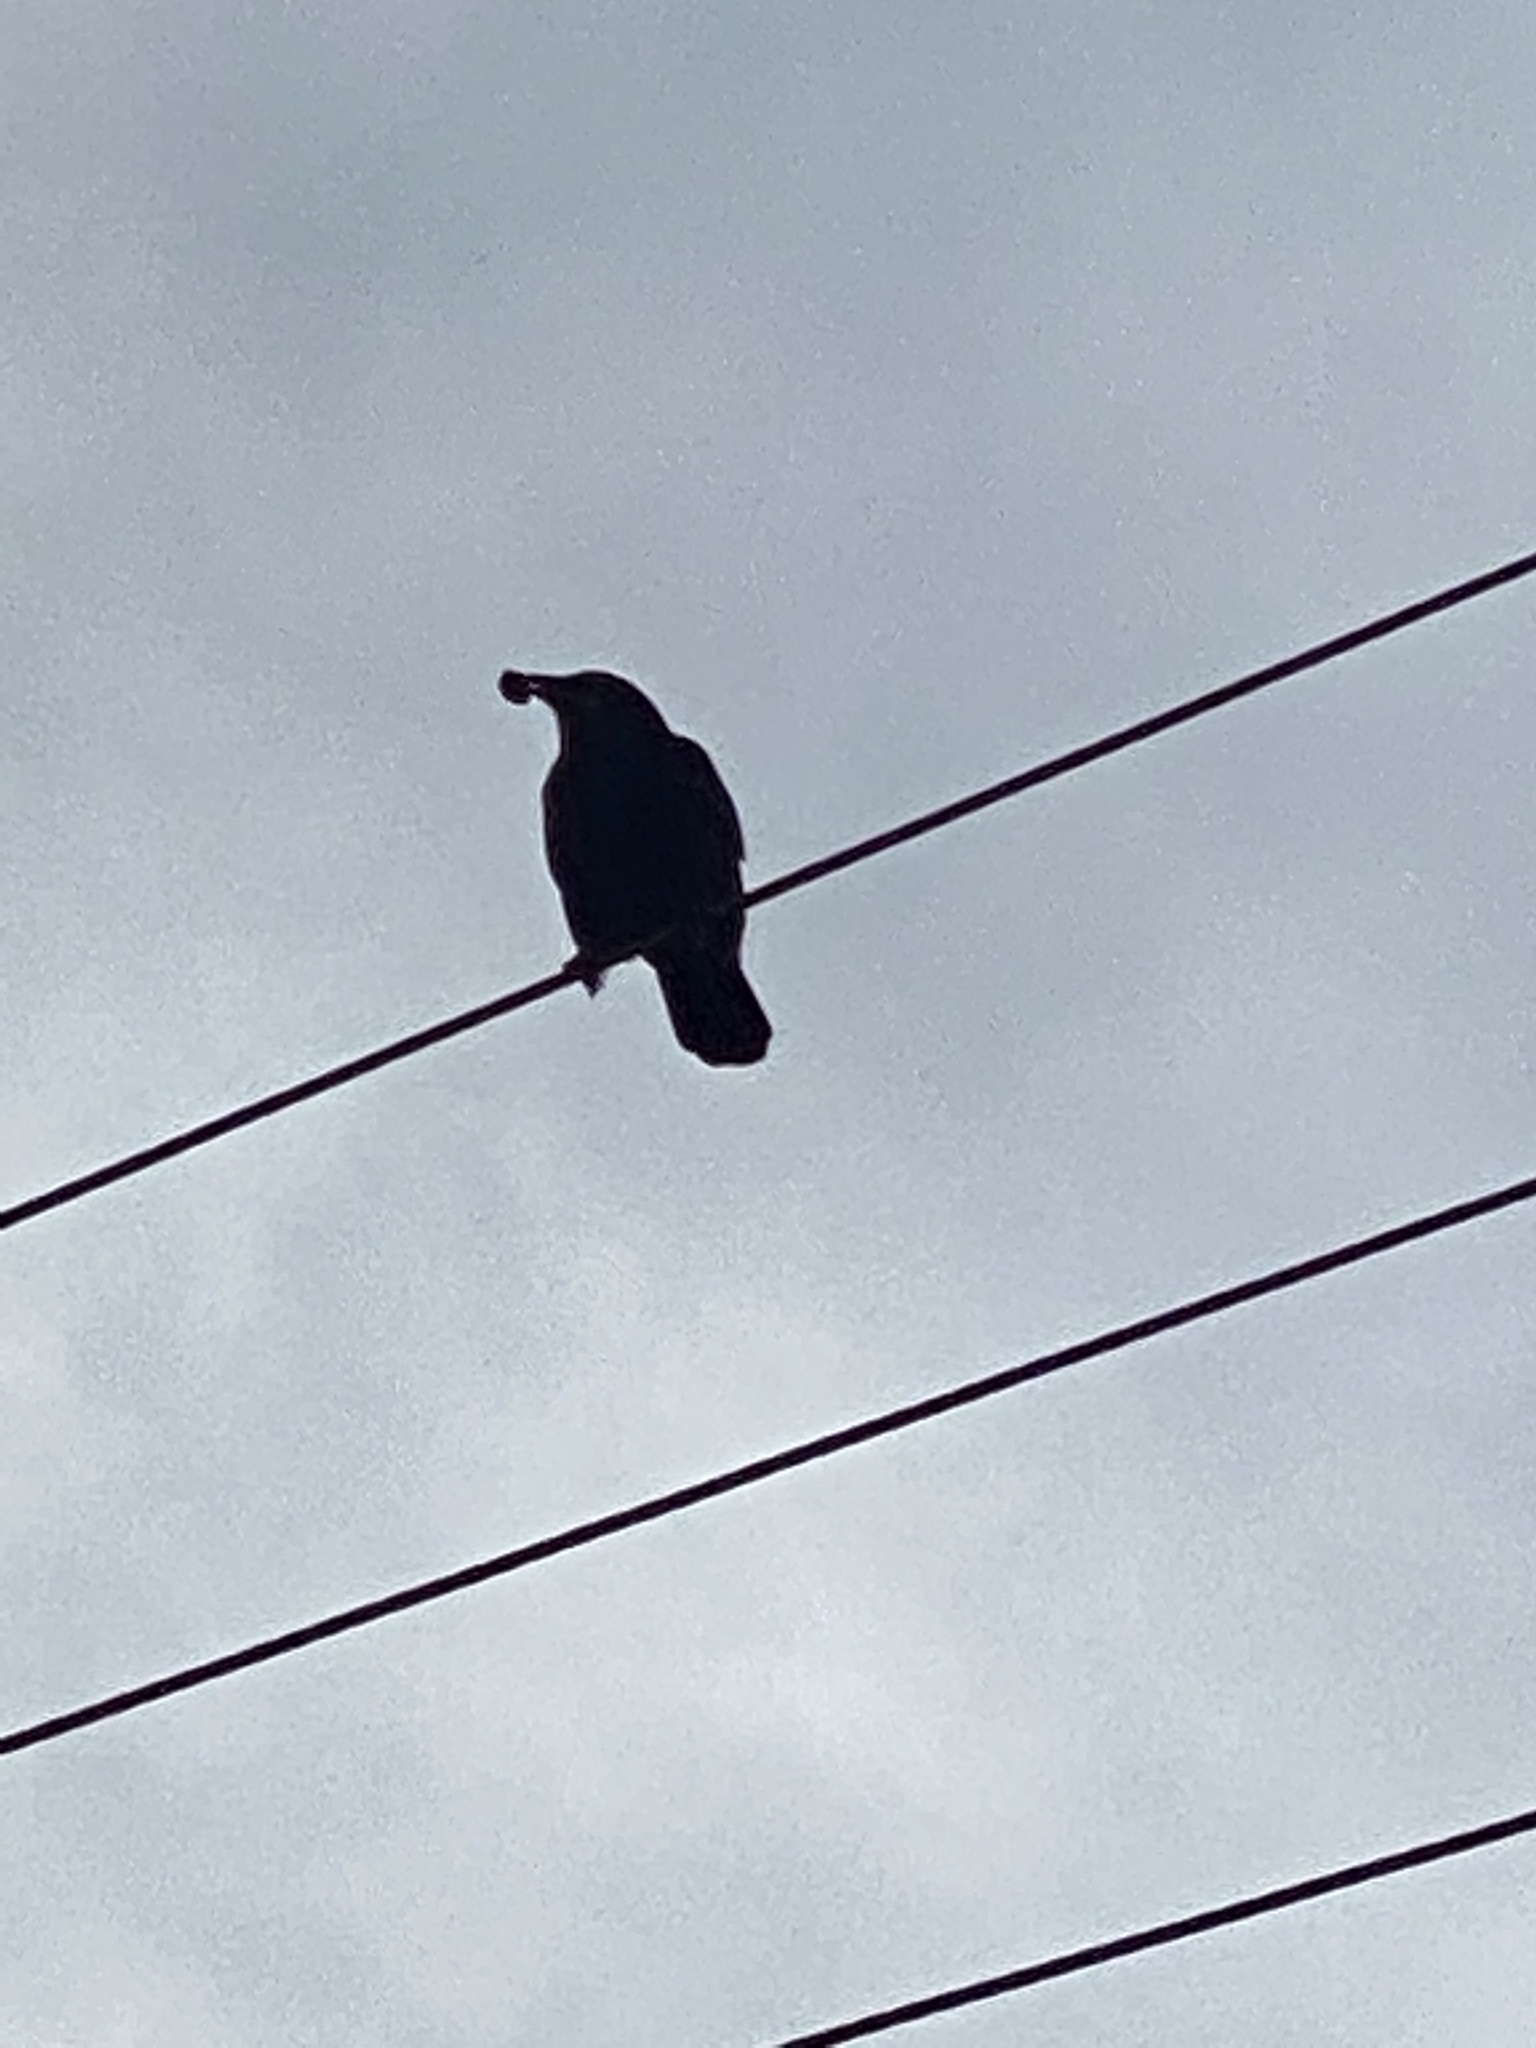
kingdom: Animalia
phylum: Chordata
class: Aves
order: Passeriformes
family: Corvidae
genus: Corvus
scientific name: Corvus brachyrhynchos
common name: American crow
